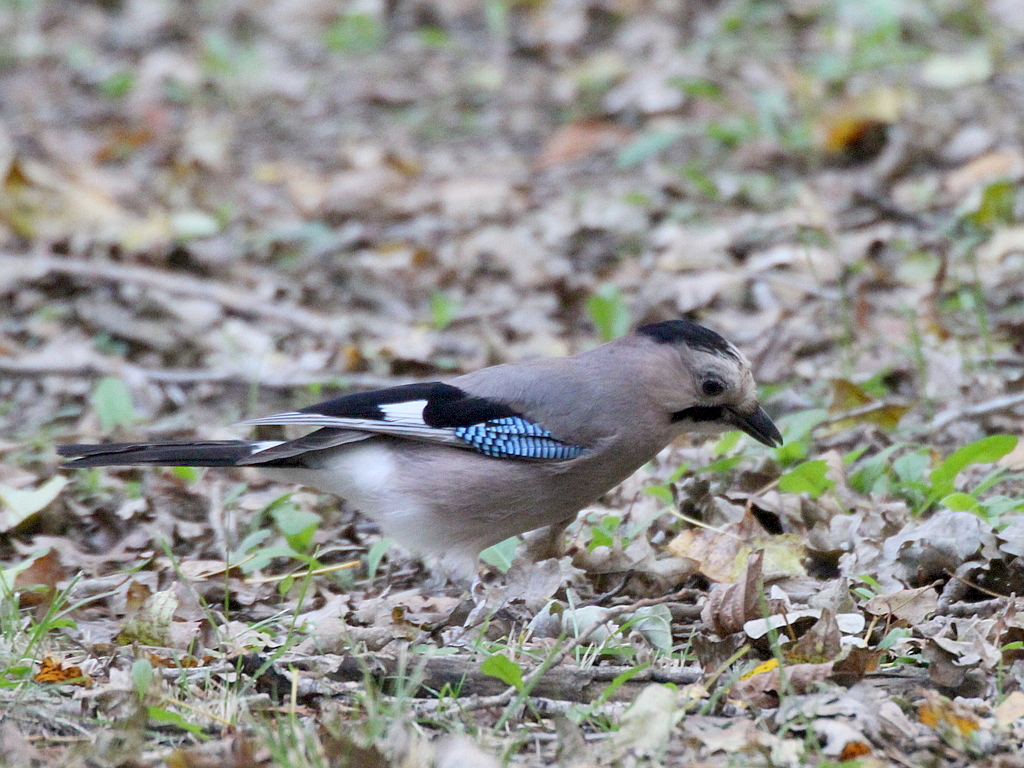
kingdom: Animalia
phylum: Chordata
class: Aves
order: Passeriformes
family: Corvidae
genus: Garrulus
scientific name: Garrulus glandarius
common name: Eurasian jay
